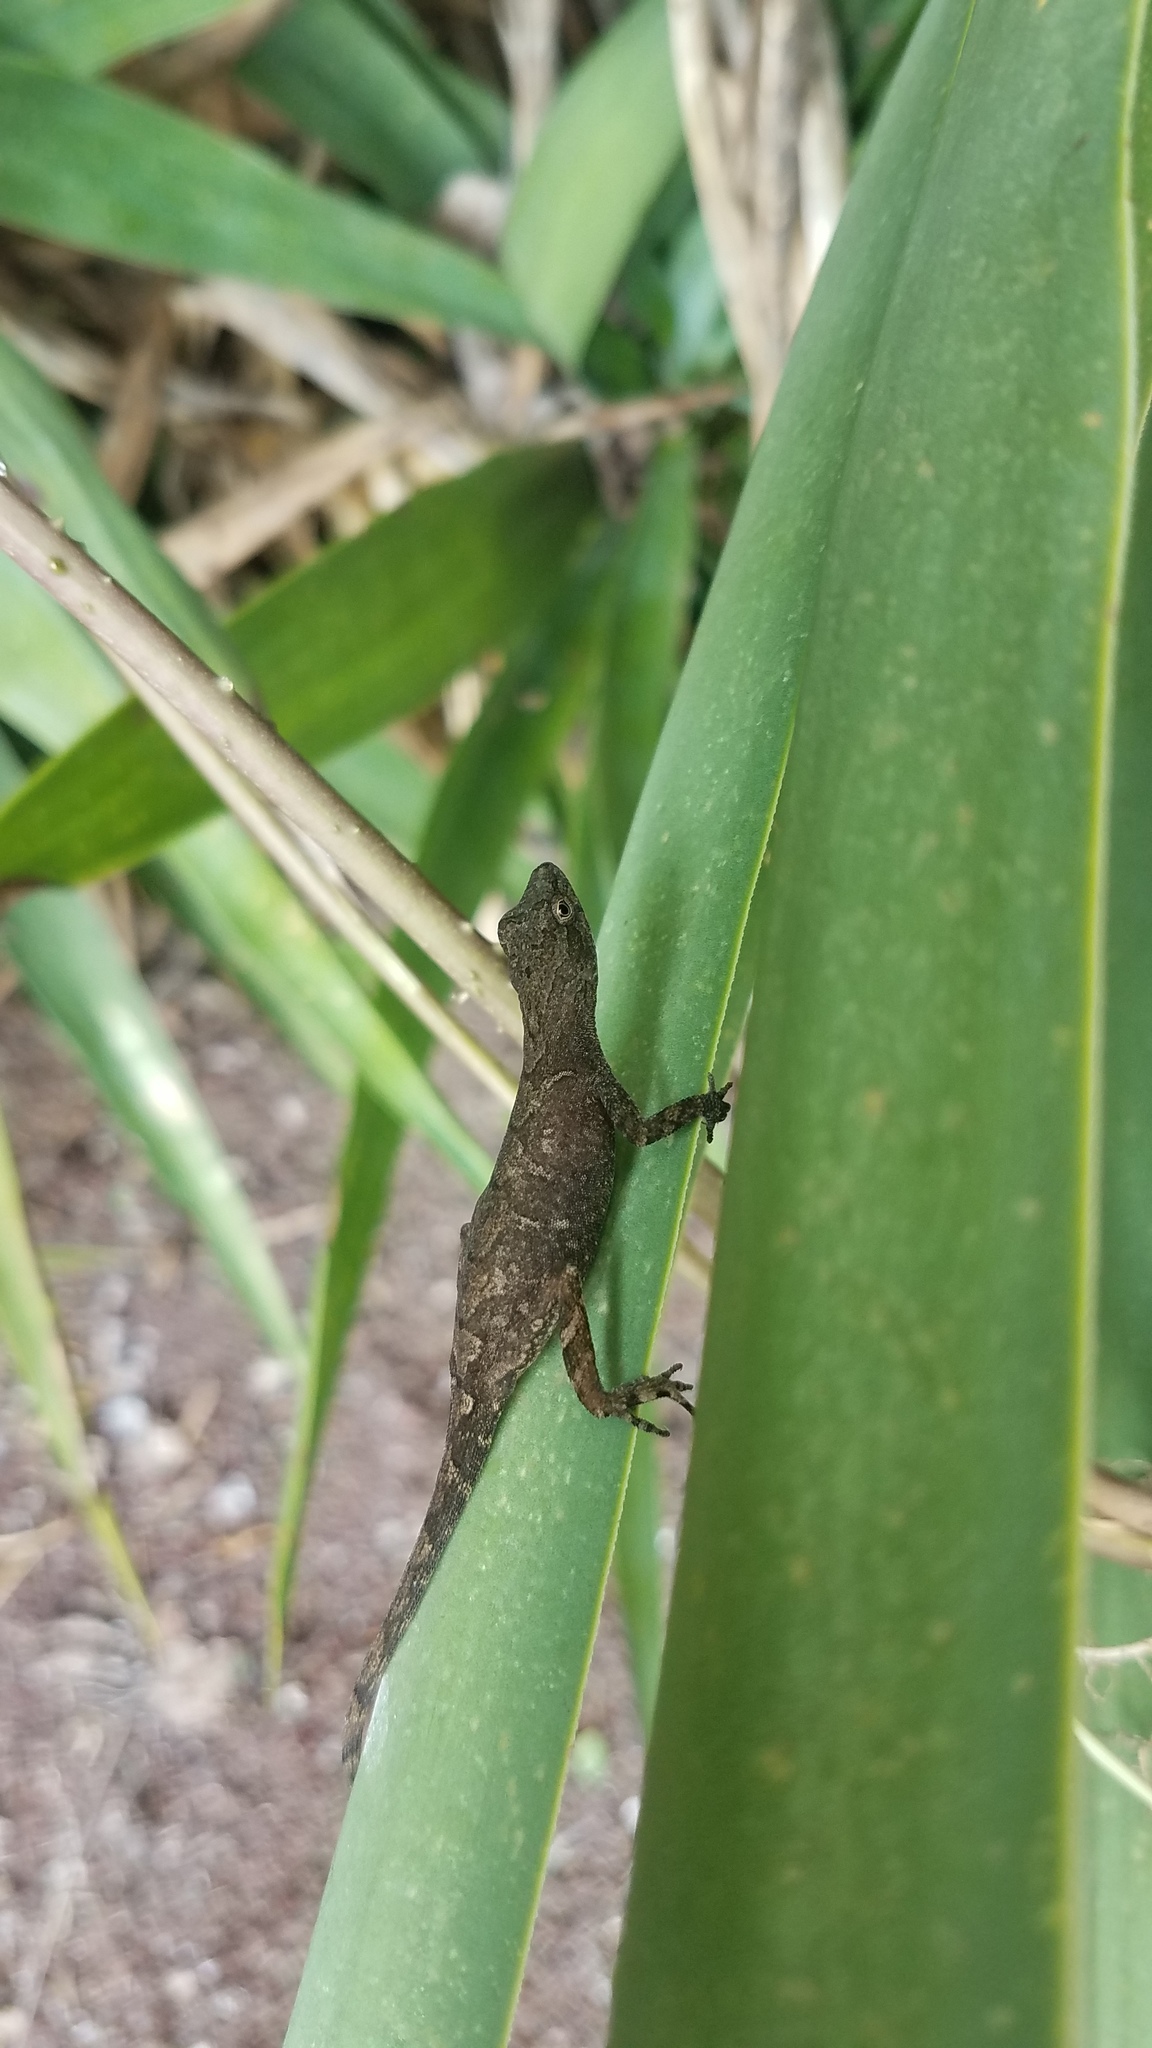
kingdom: Animalia
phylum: Chordata
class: Squamata
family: Dactyloidae
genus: Anolis
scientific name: Anolis humilis
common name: Humble anole
